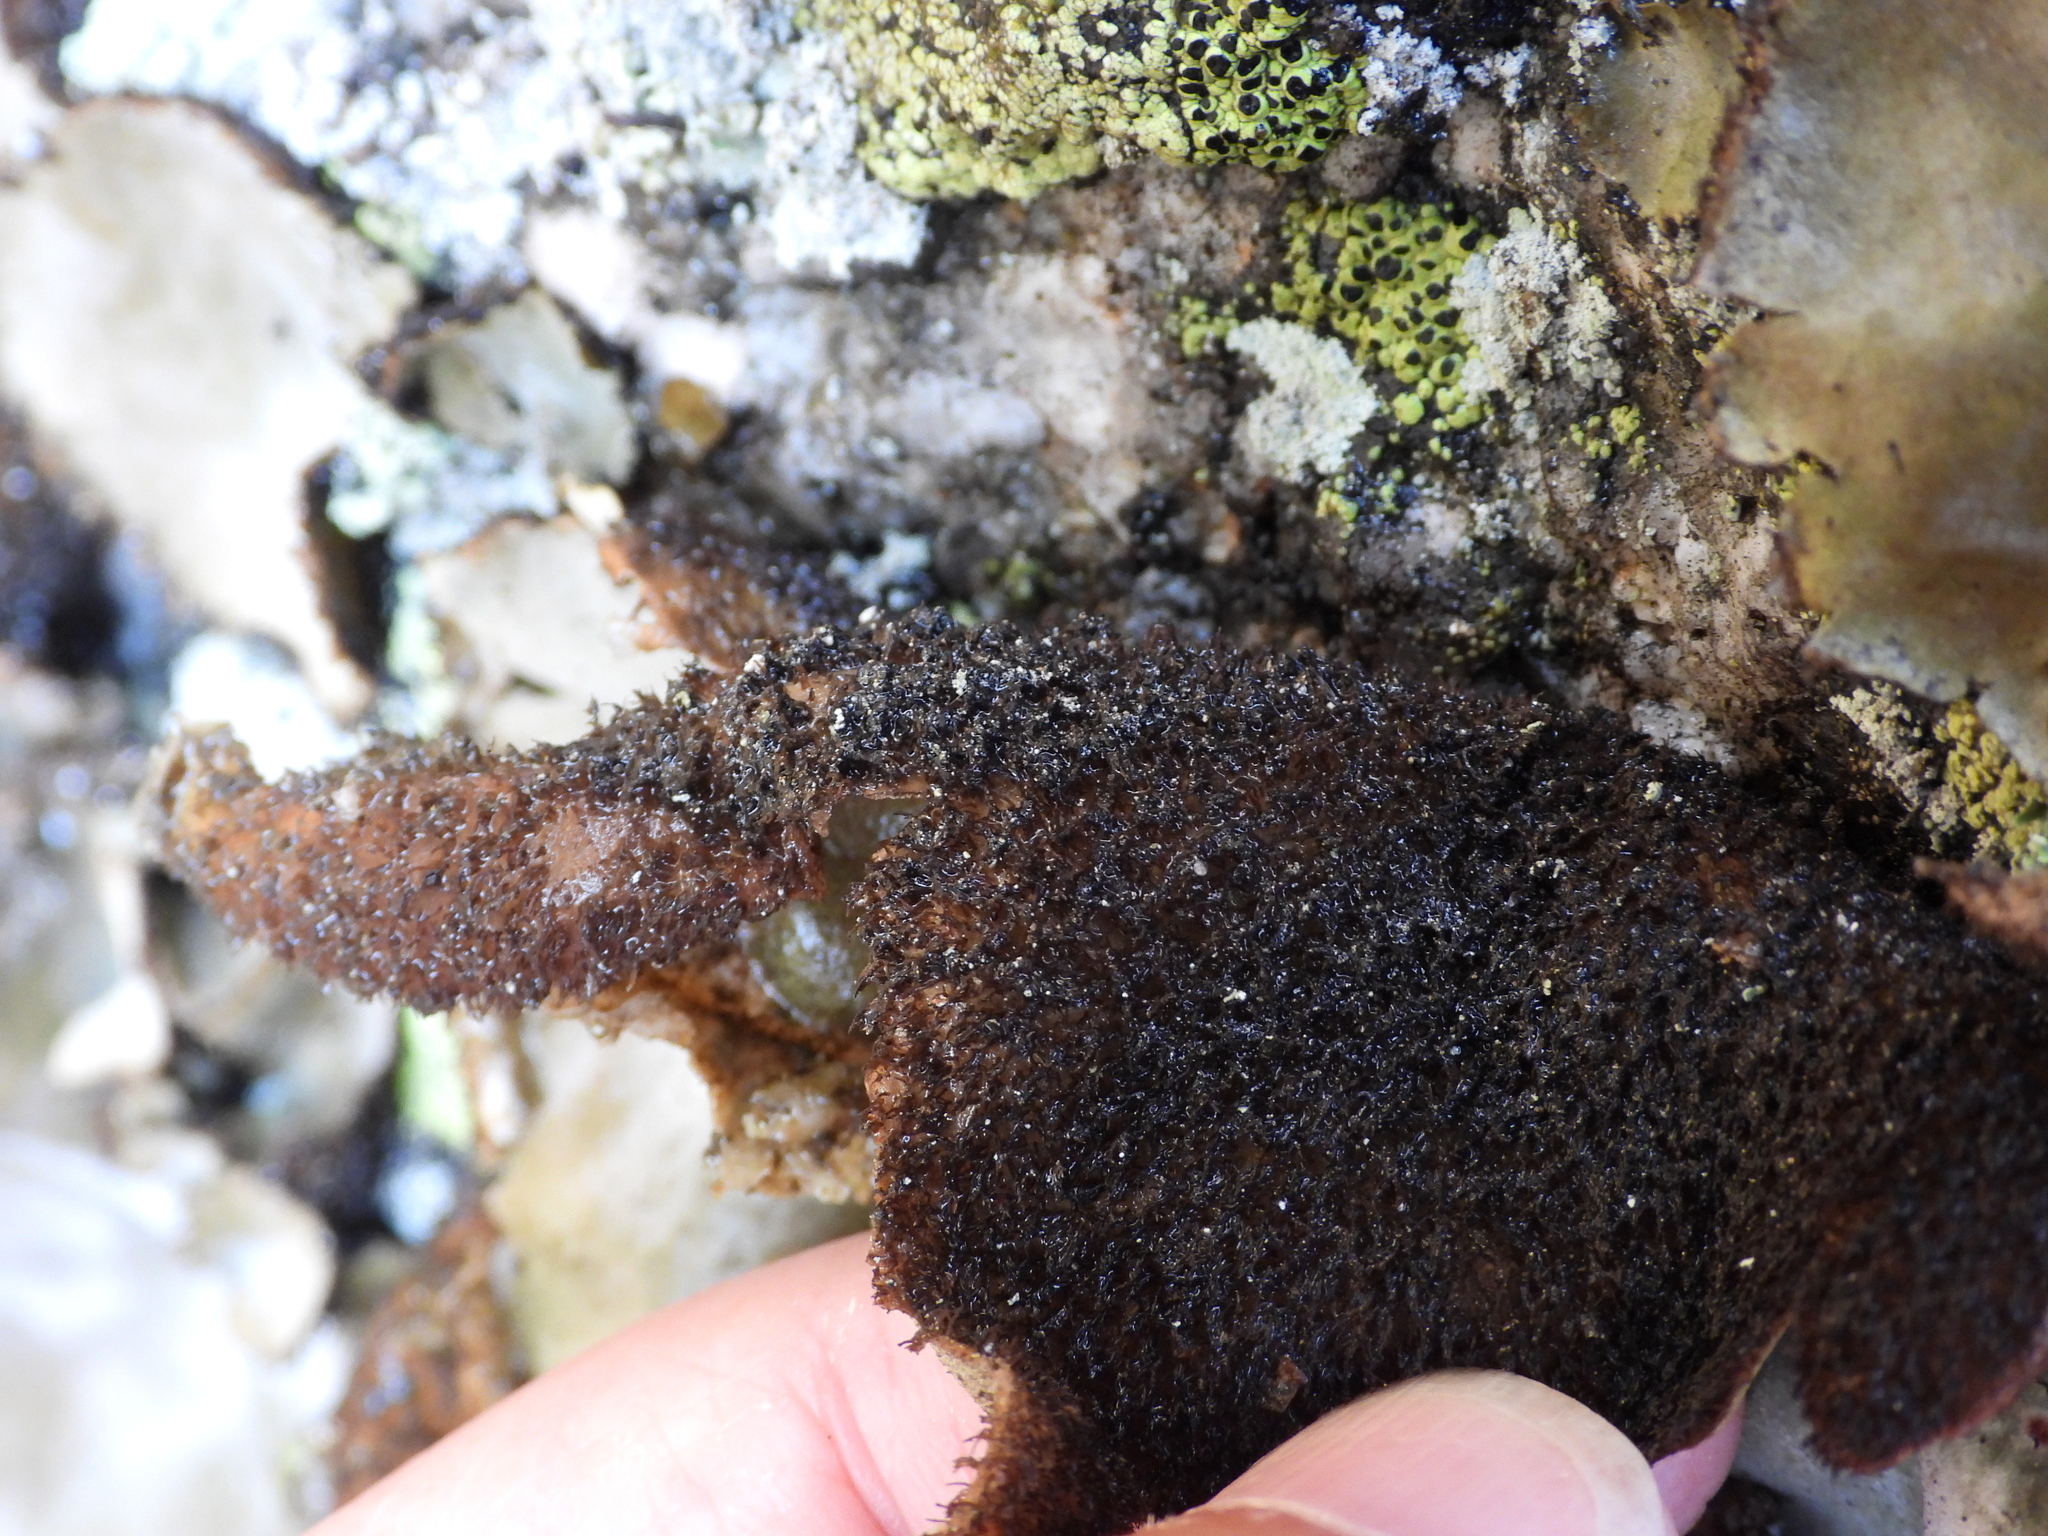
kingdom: Fungi
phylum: Ascomycota
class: Lecanoromycetes
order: Umbilicariales
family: Umbilicariaceae
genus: Umbilicaria
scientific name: Umbilicaria hirsuta
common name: Granulating rocktripe lichen
